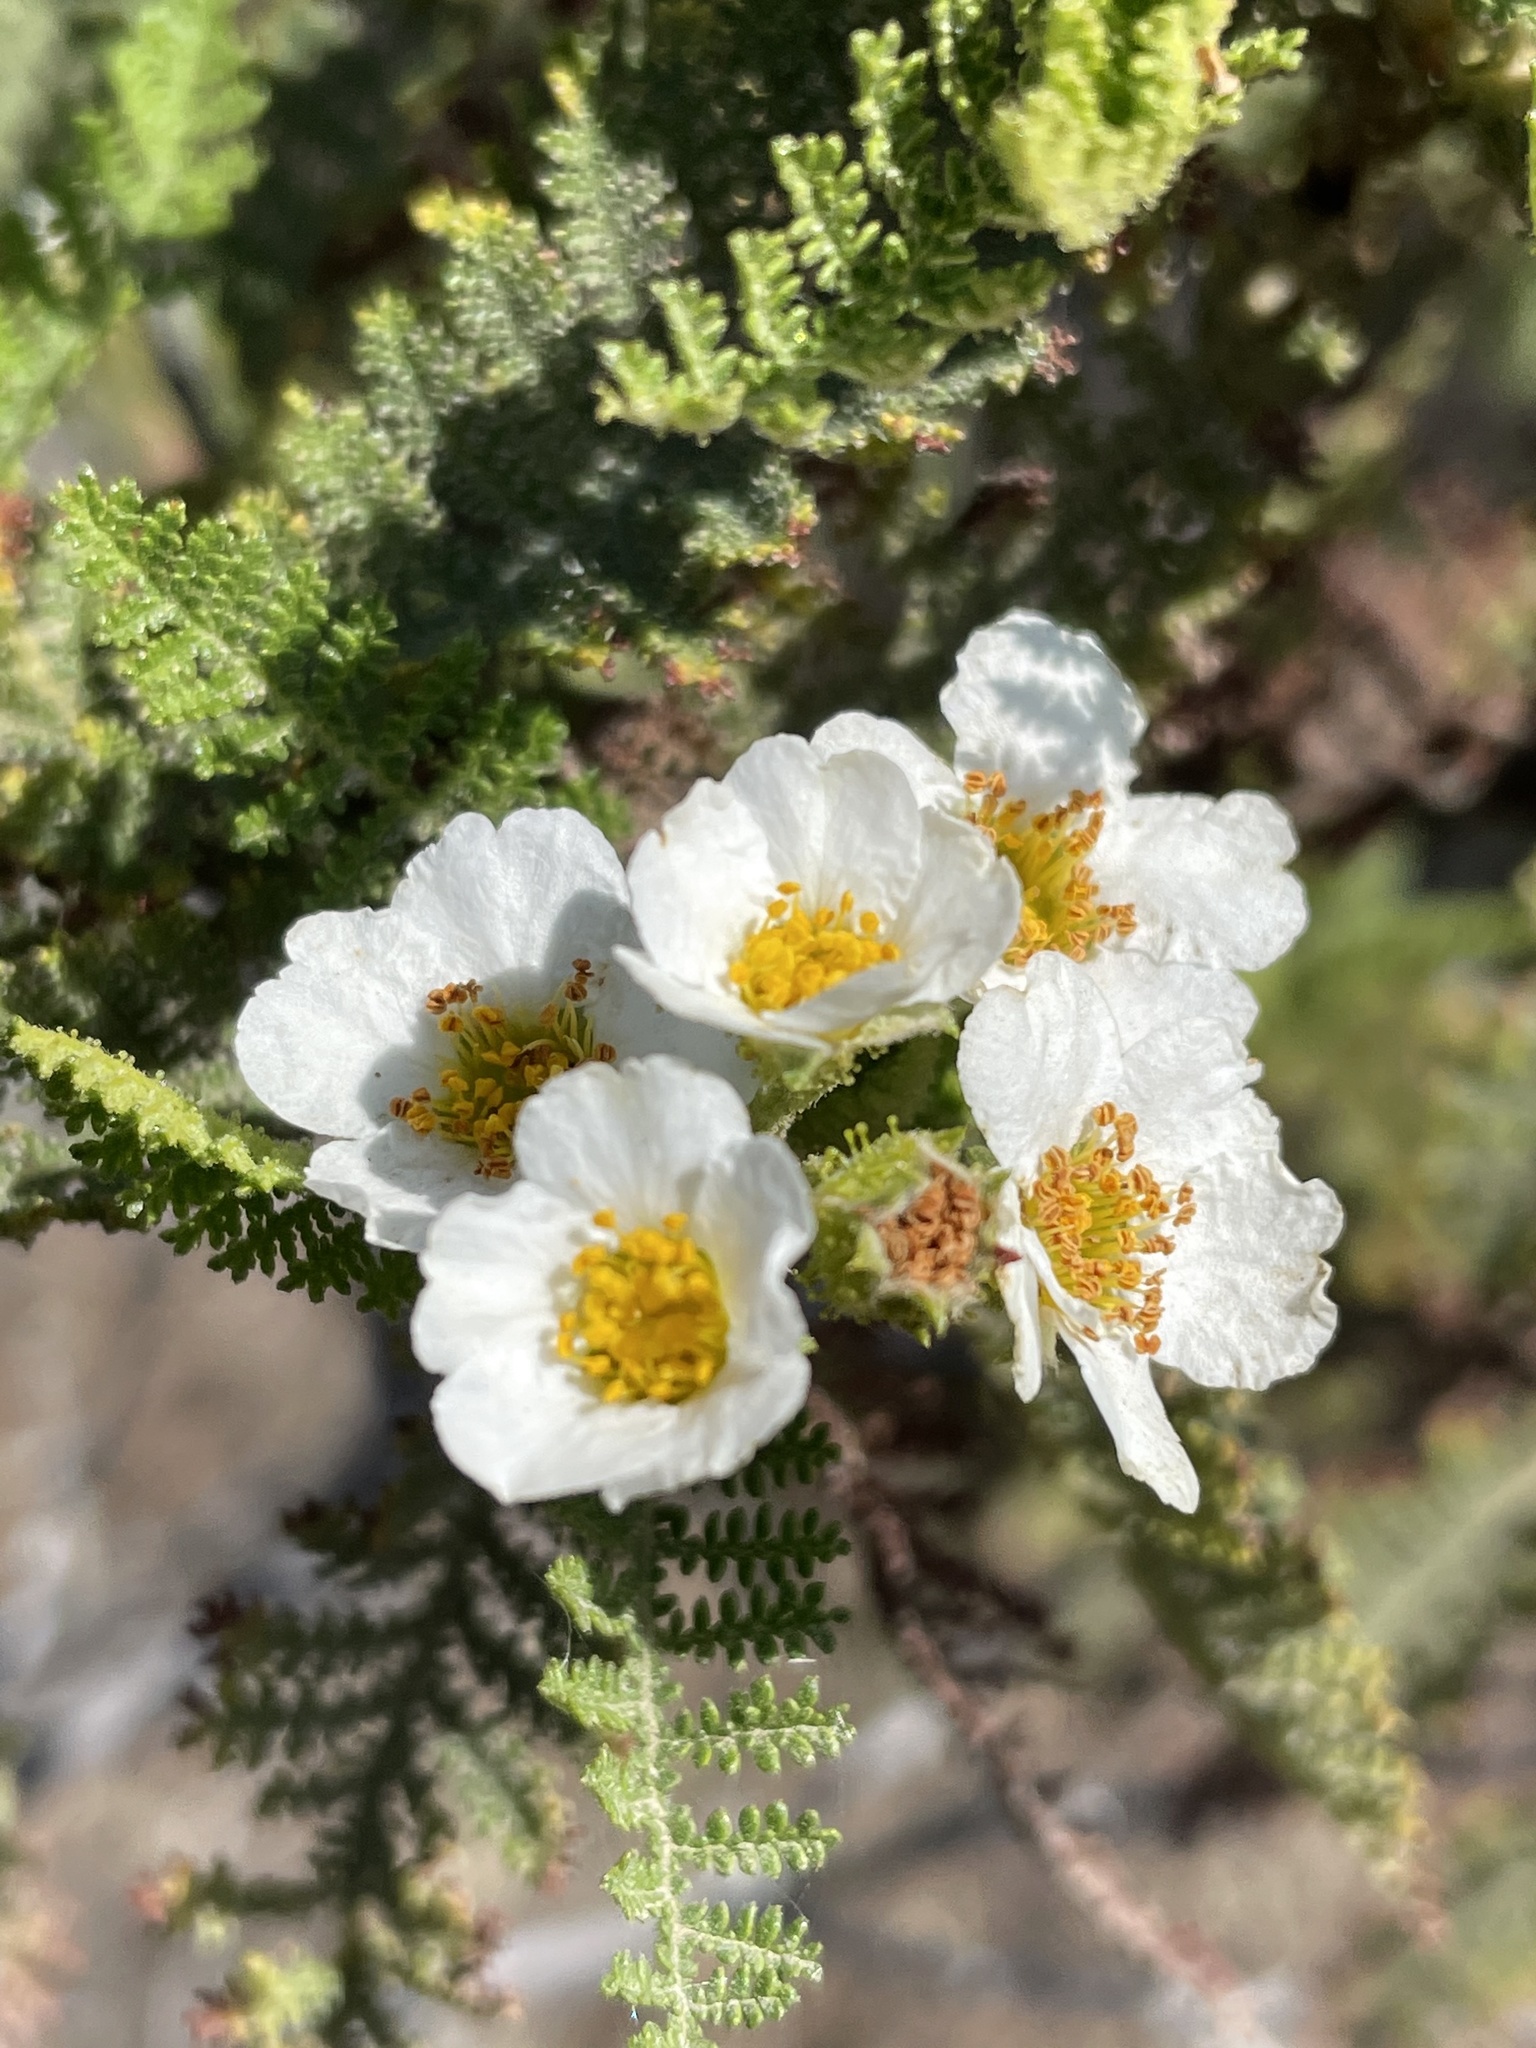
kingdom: Plantae
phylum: Tracheophyta
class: Magnoliopsida
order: Rosales
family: Rosaceae
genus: Chamaebatia
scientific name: Chamaebatia australis
